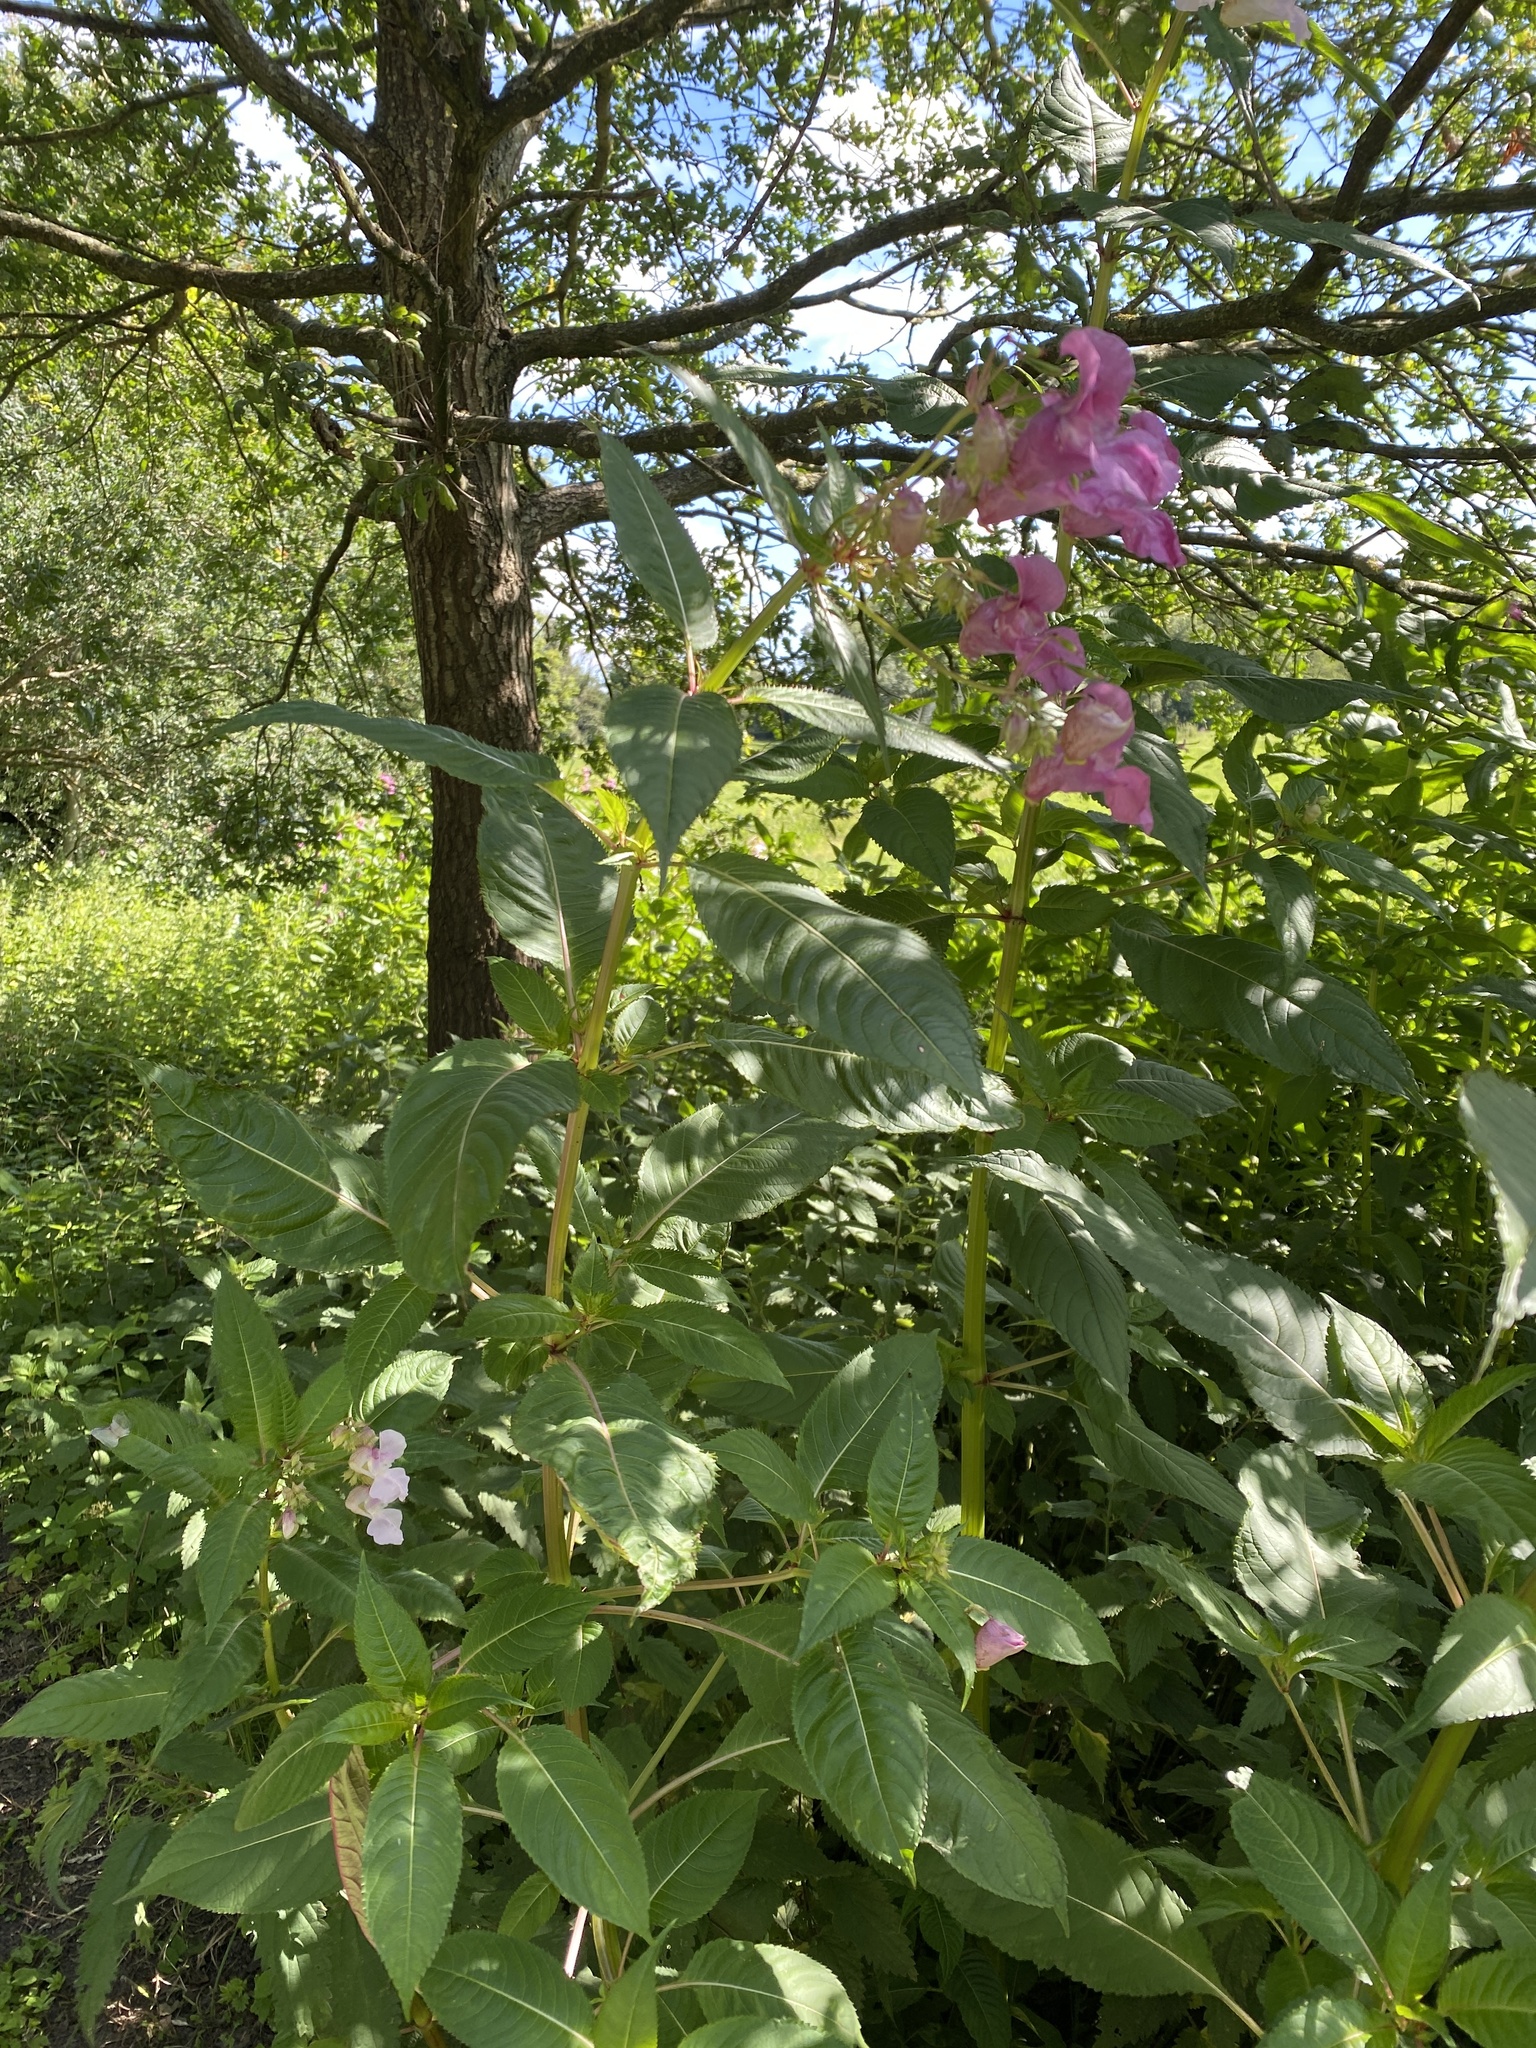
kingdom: Plantae
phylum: Tracheophyta
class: Magnoliopsida
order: Ericales
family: Balsaminaceae
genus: Impatiens
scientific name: Impatiens glandulifera
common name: Himalayan balsam
